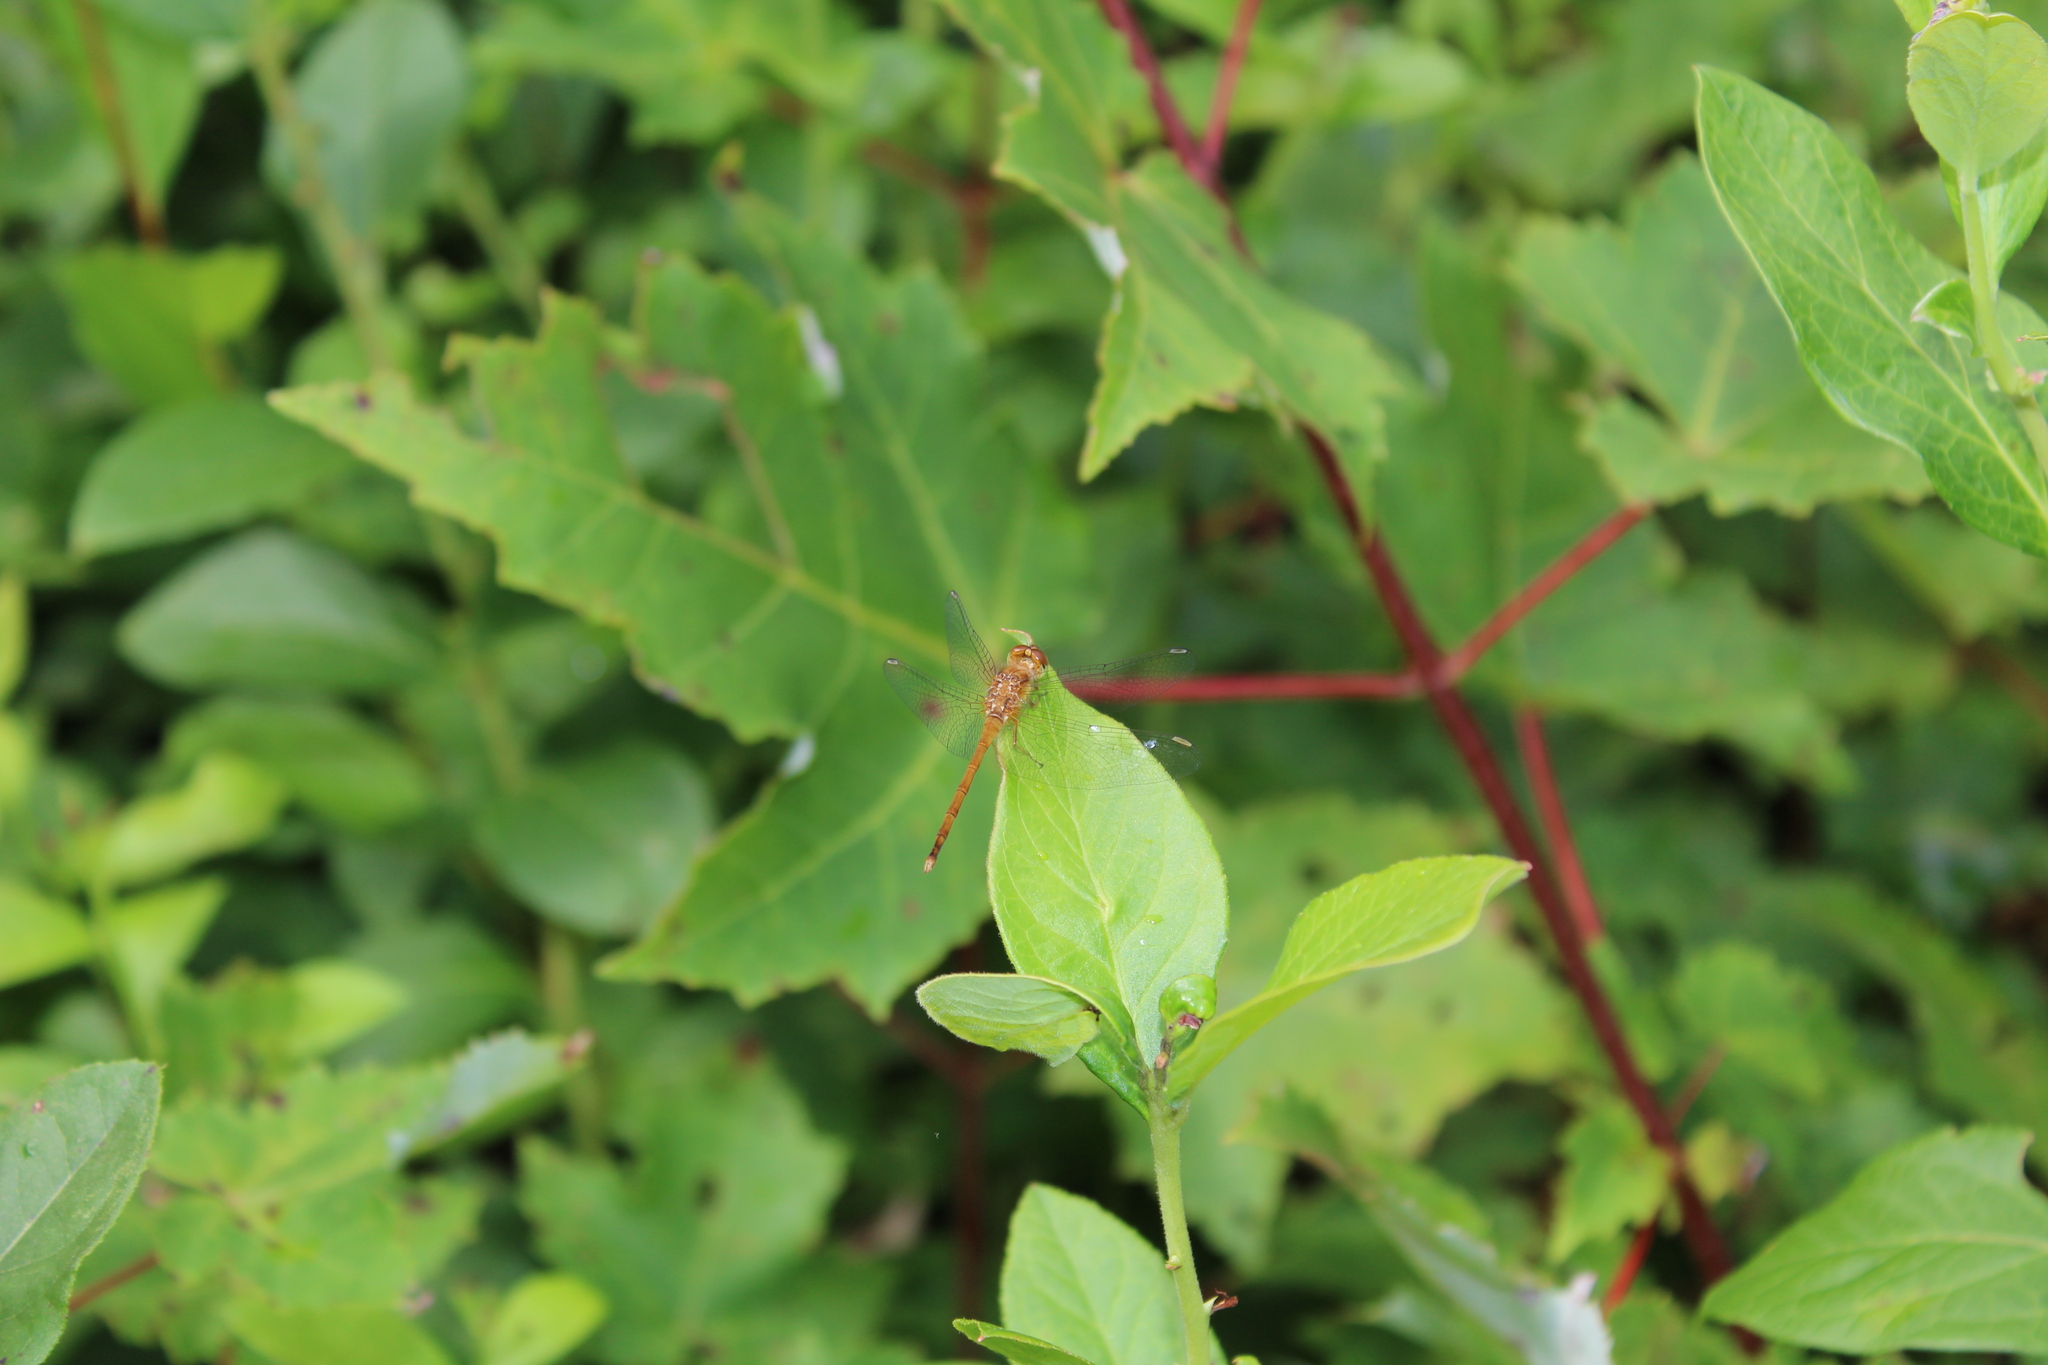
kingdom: Animalia
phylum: Arthropoda
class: Insecta
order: Odonata
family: Libellulidae
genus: Sympetrum
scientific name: Sympetrum vicinum
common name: Autumn meadowhawk
